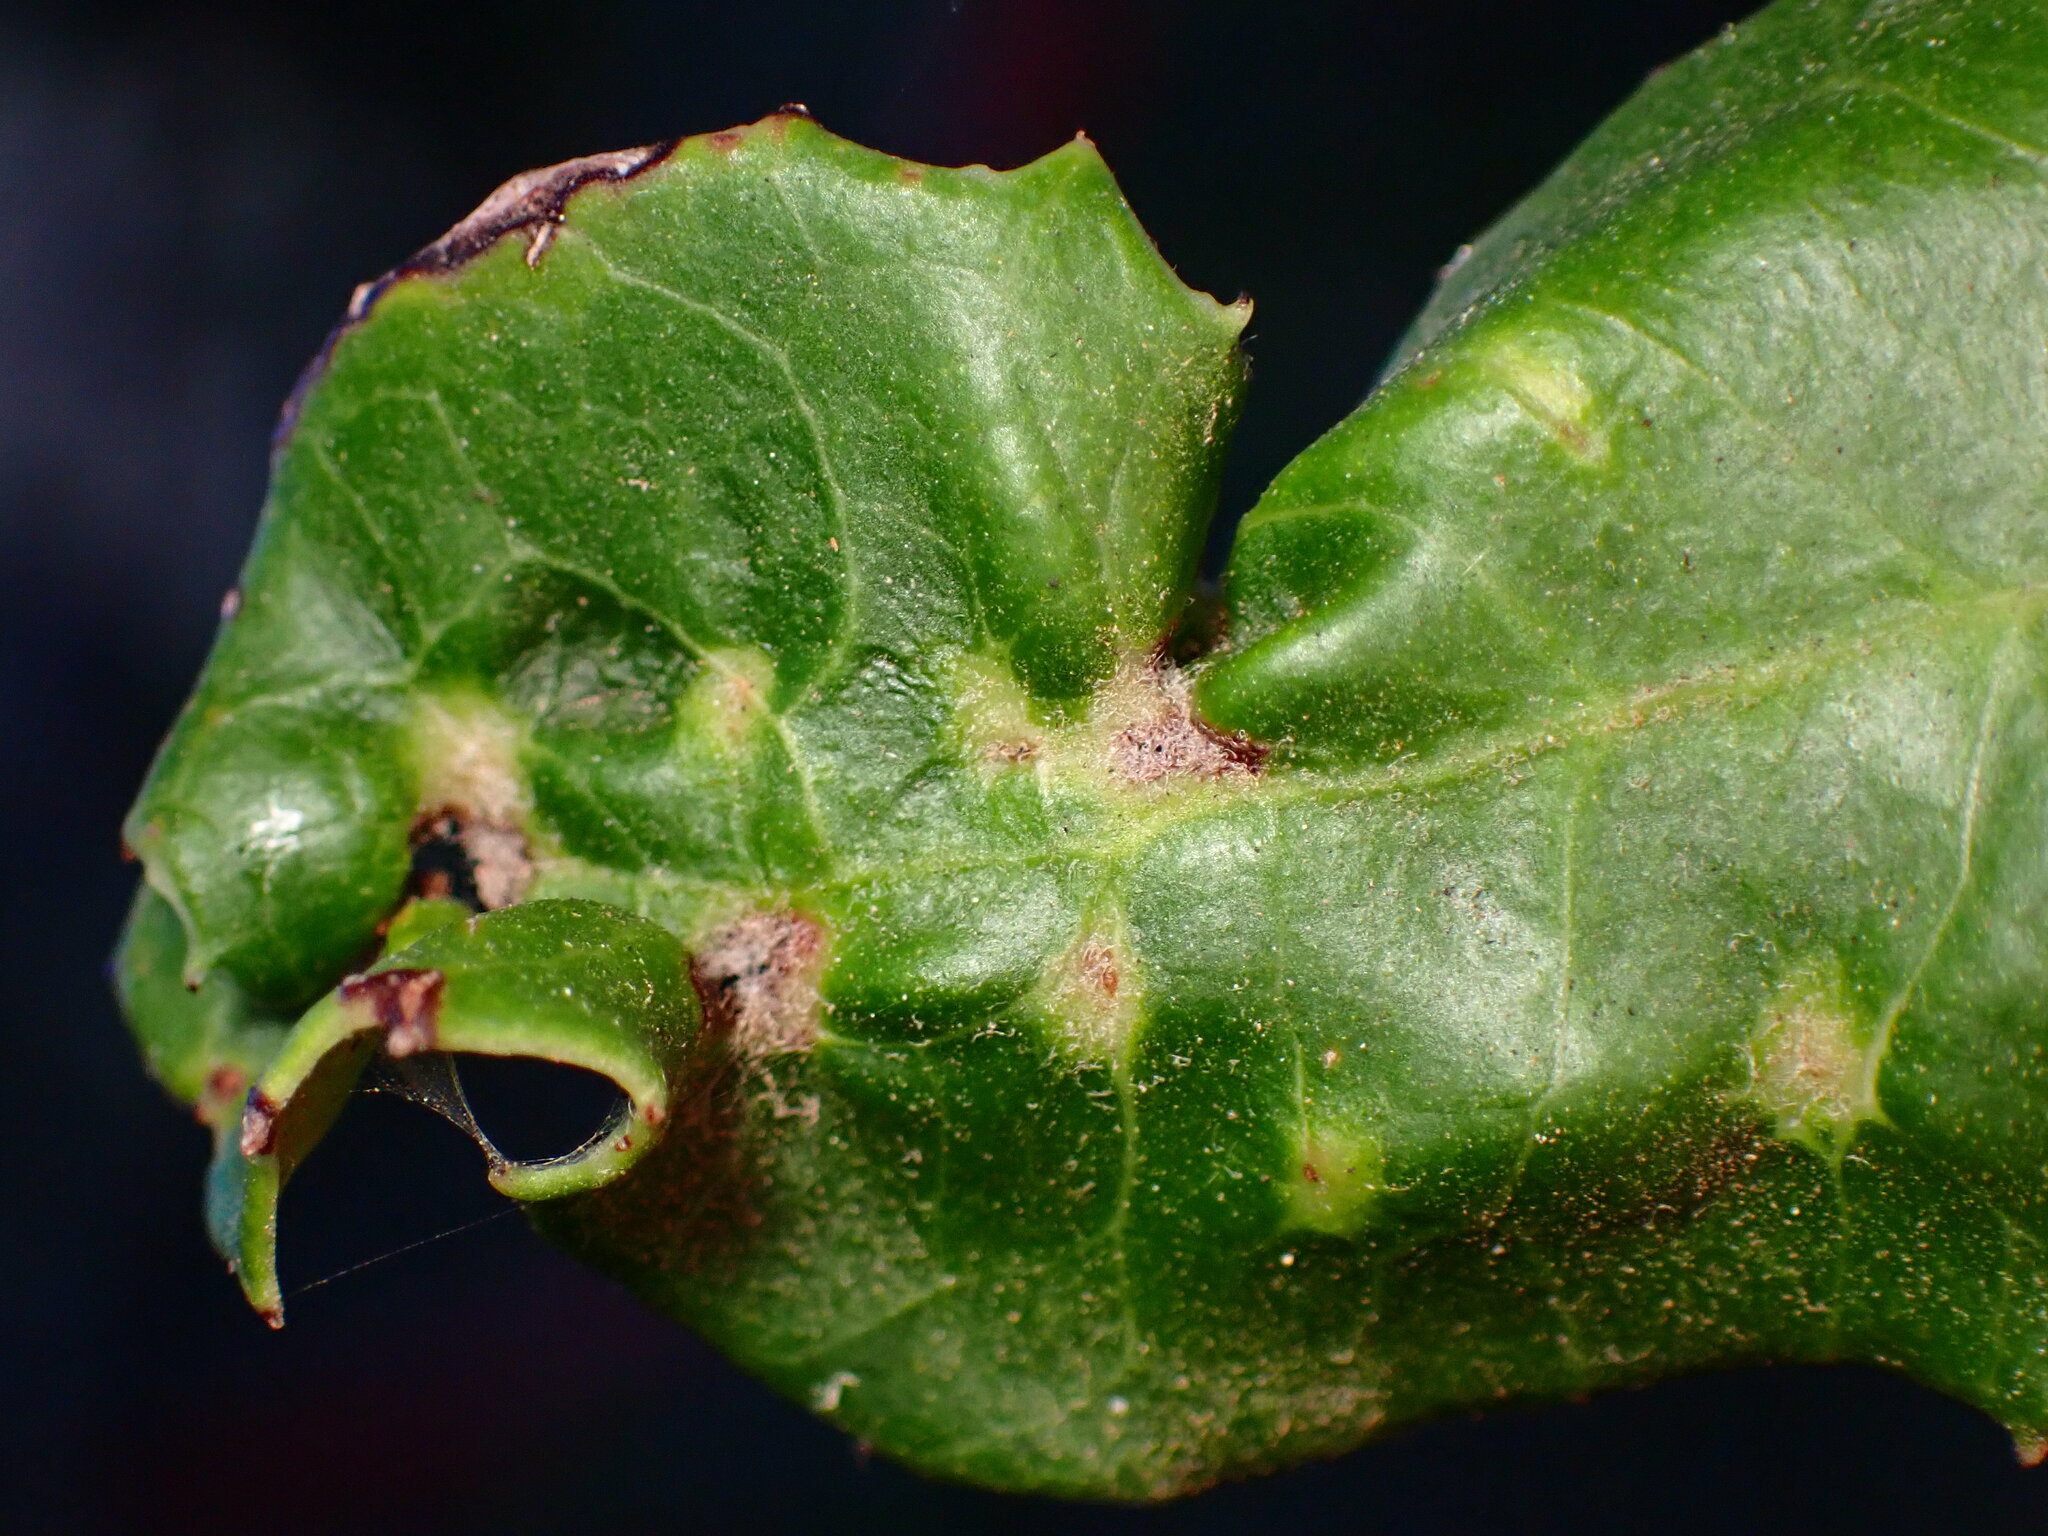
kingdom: Animalia
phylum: Arthropoda
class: Insecta
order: Thysanoptera
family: Phlaeothripidae
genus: Liothrips
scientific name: Liothrips ilex
